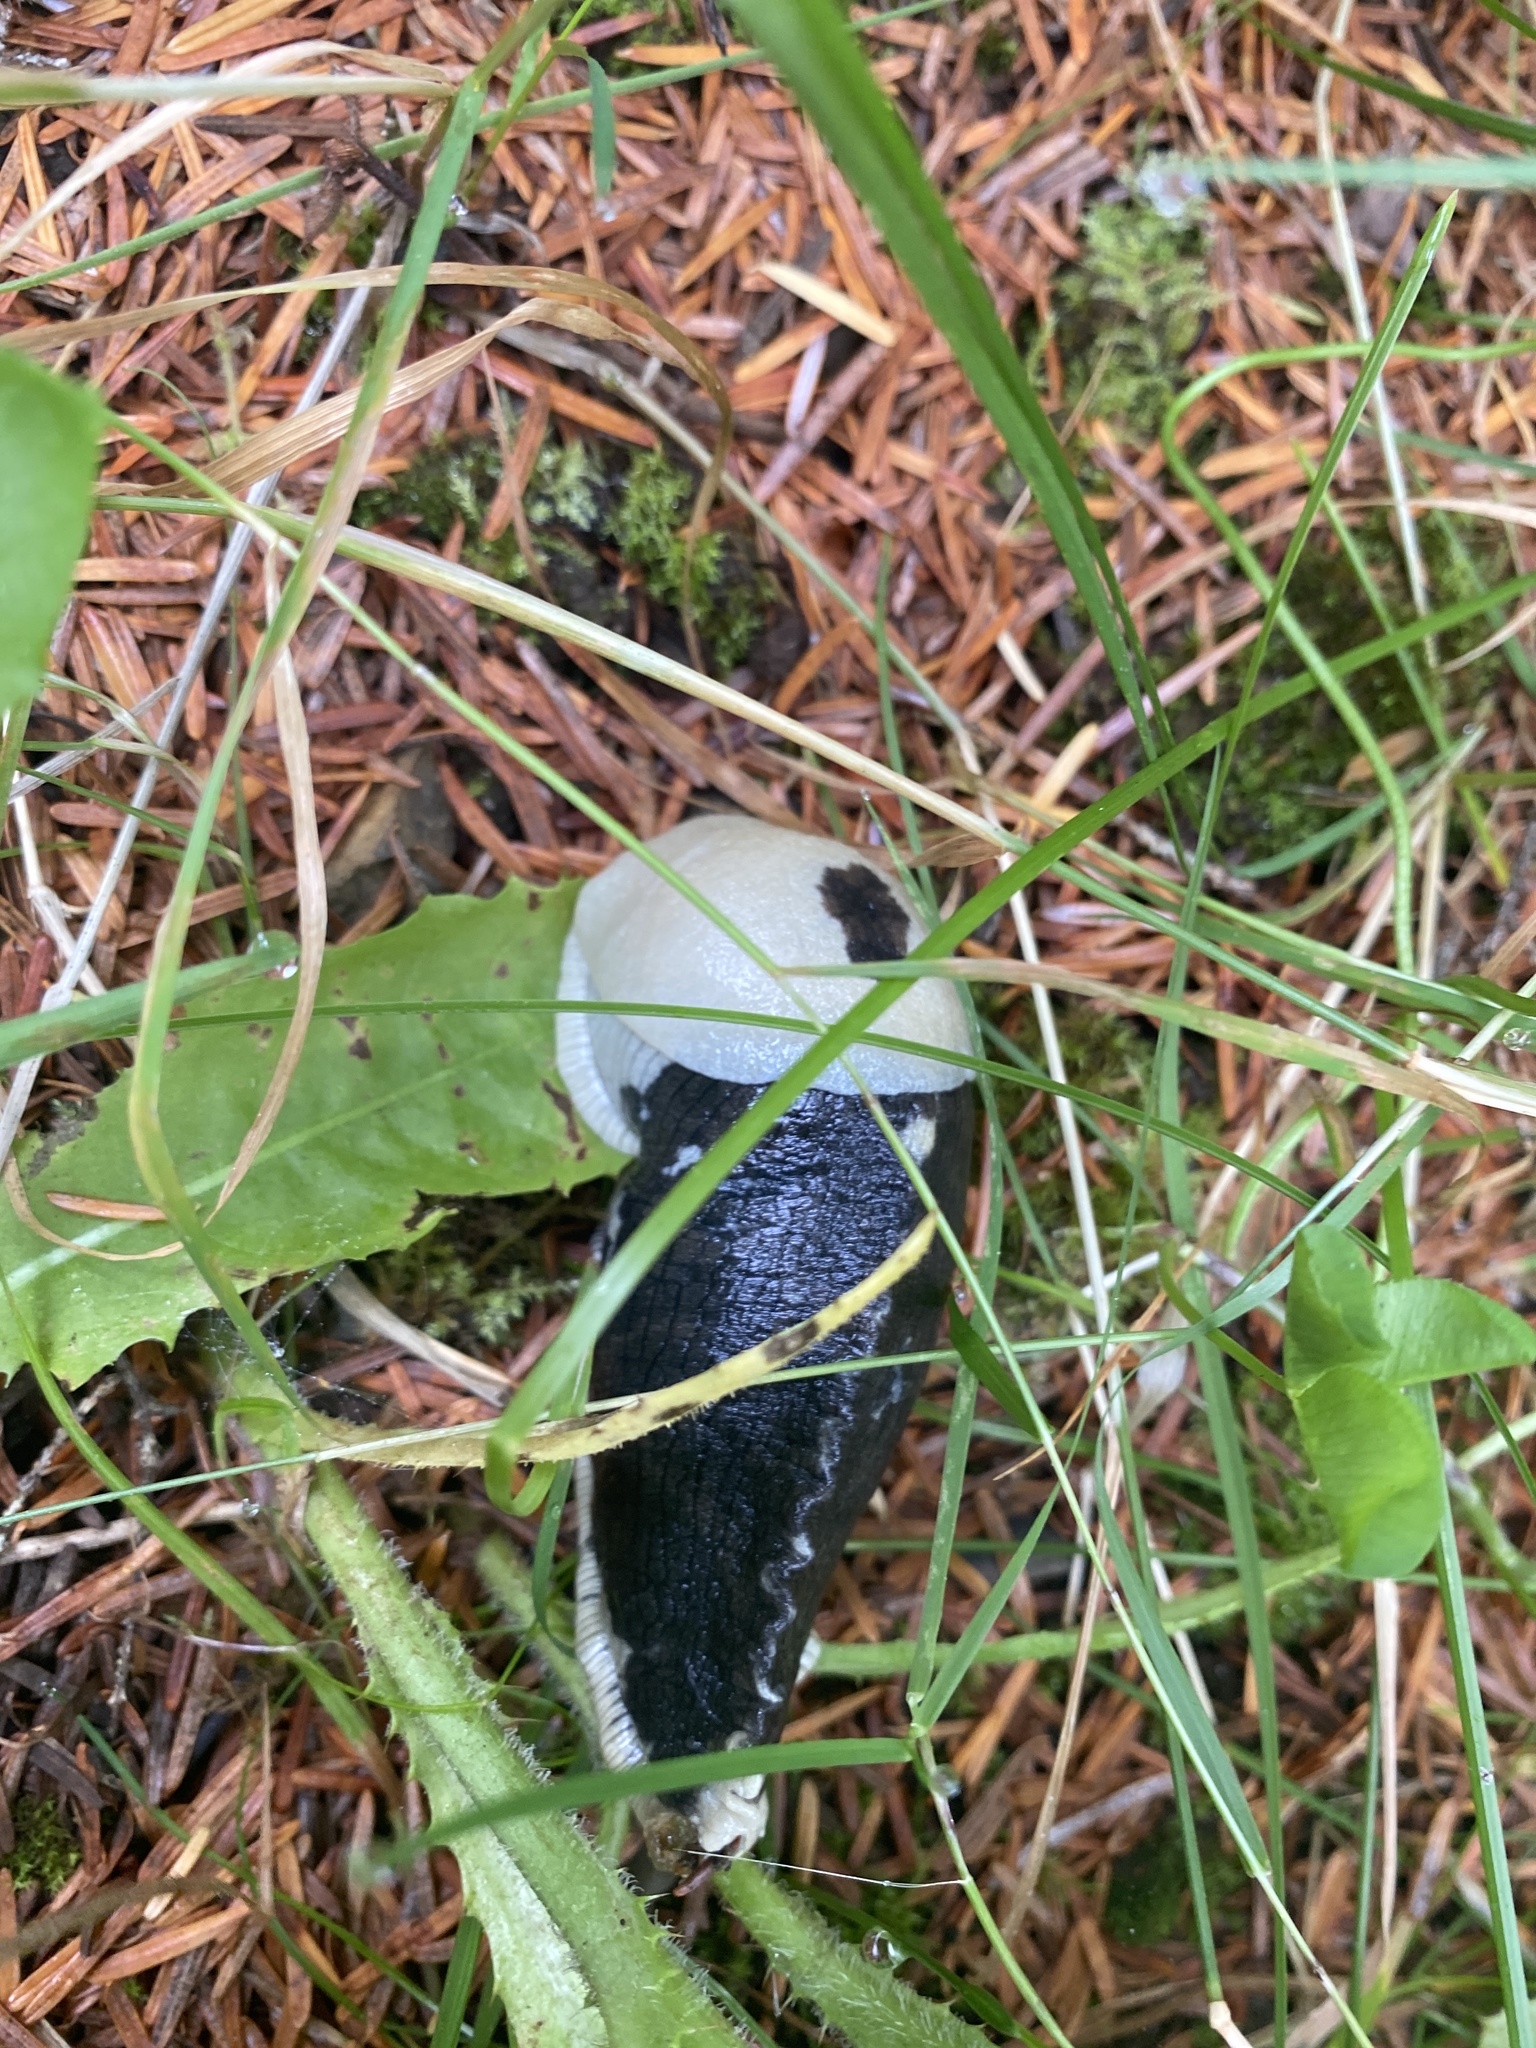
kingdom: Animalia
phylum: Mollusca
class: Gastropoda
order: Stylommatophora
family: Ariolimacidae
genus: Ariolimax
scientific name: Ariolimax columbianus
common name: Pacific banana slug
